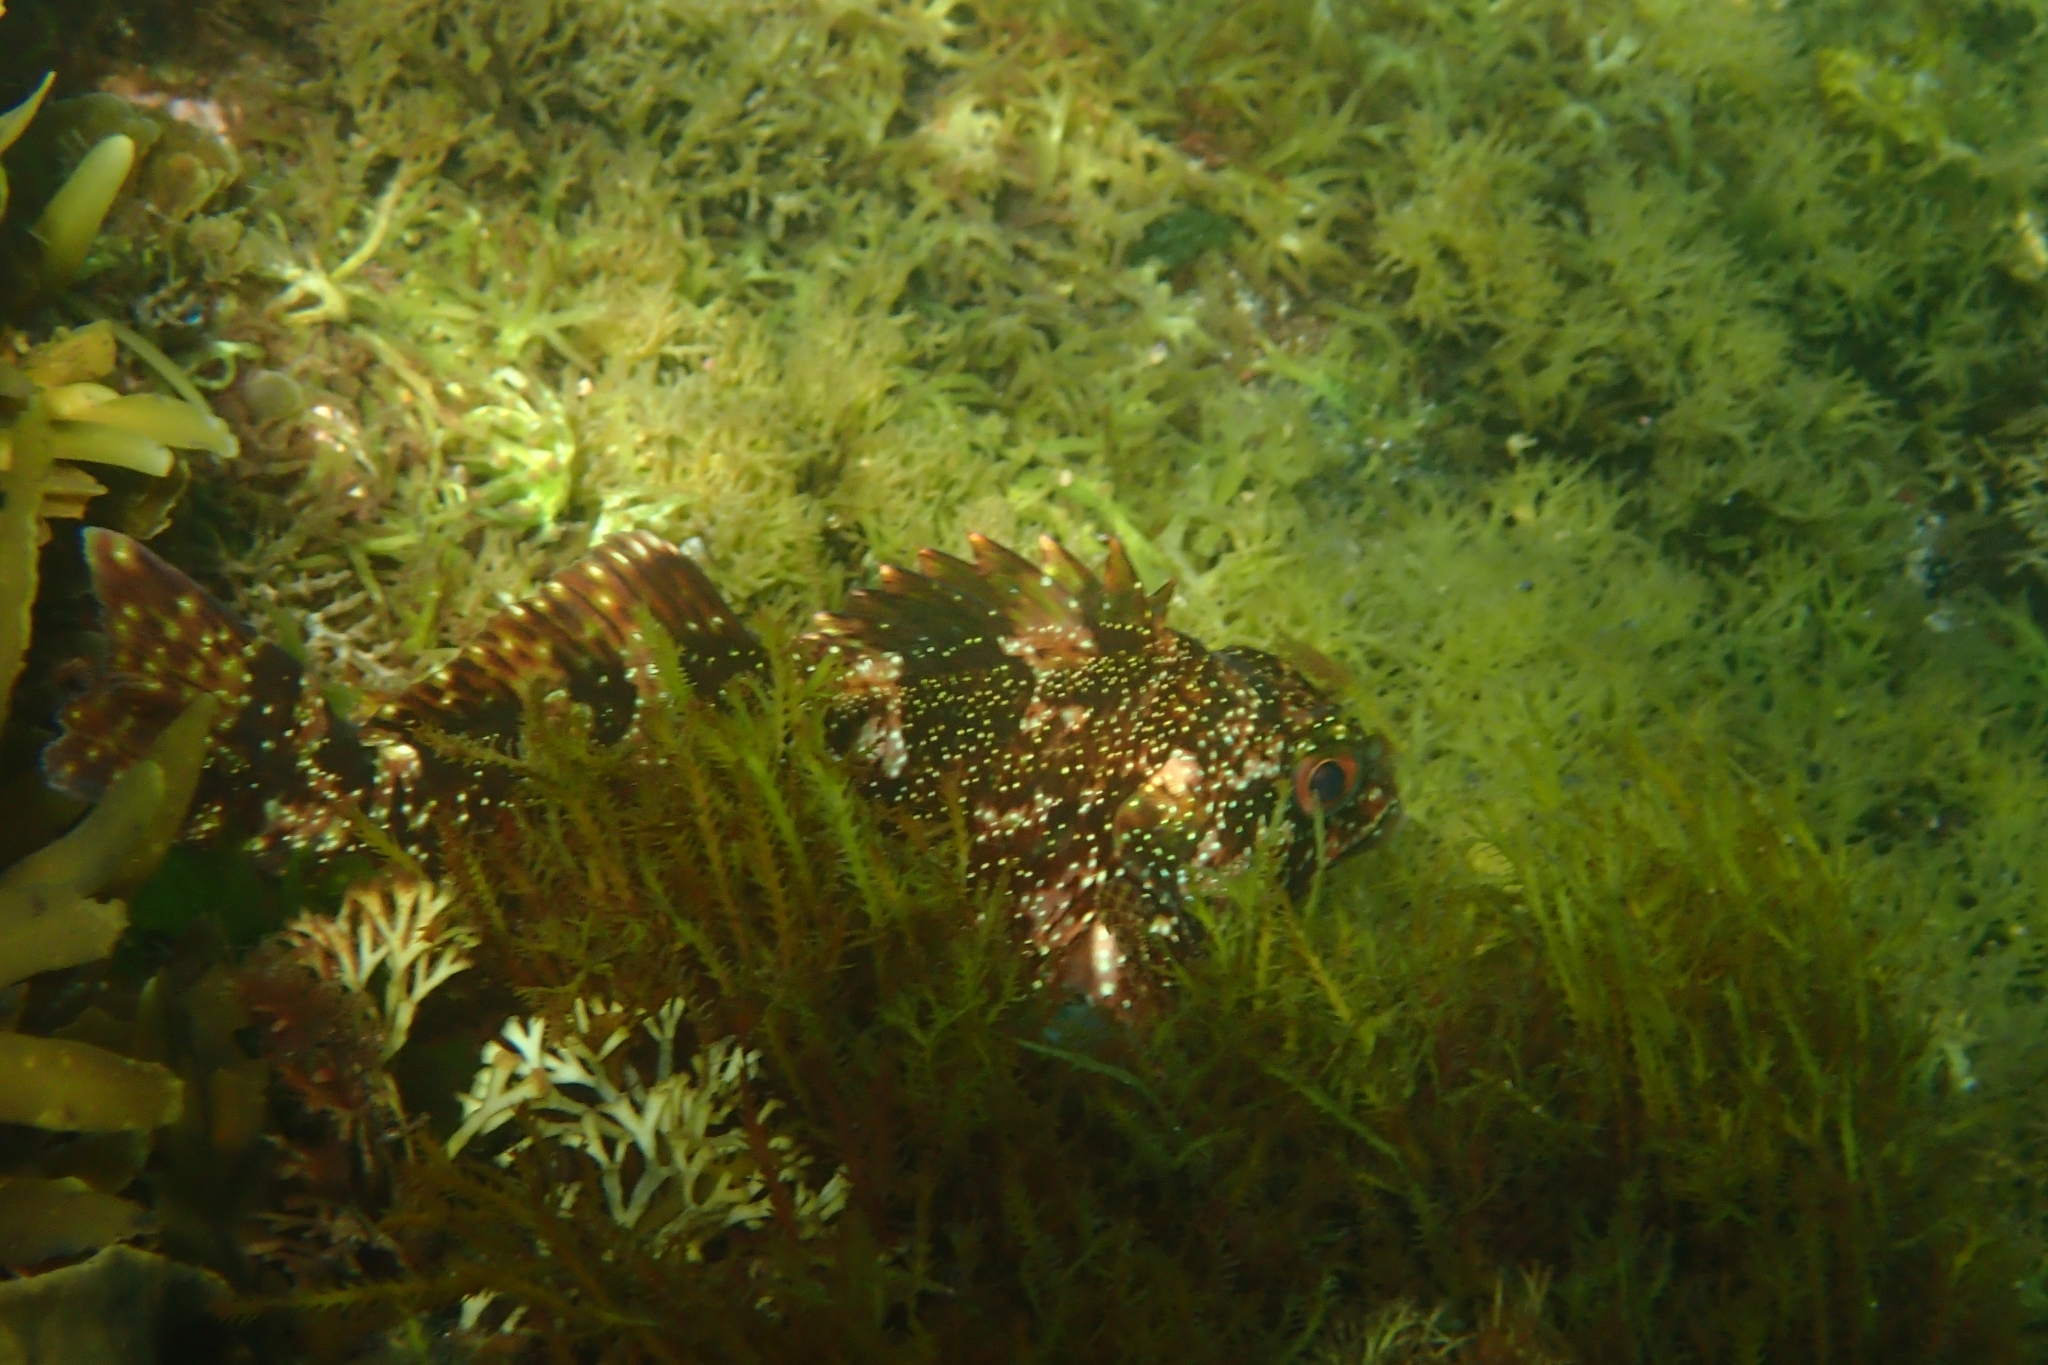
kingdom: Animalia
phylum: Chordata
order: Perciformes
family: Chironemidae
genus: Chironemus
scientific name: Chironemus marmoratus
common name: Kelpfish
